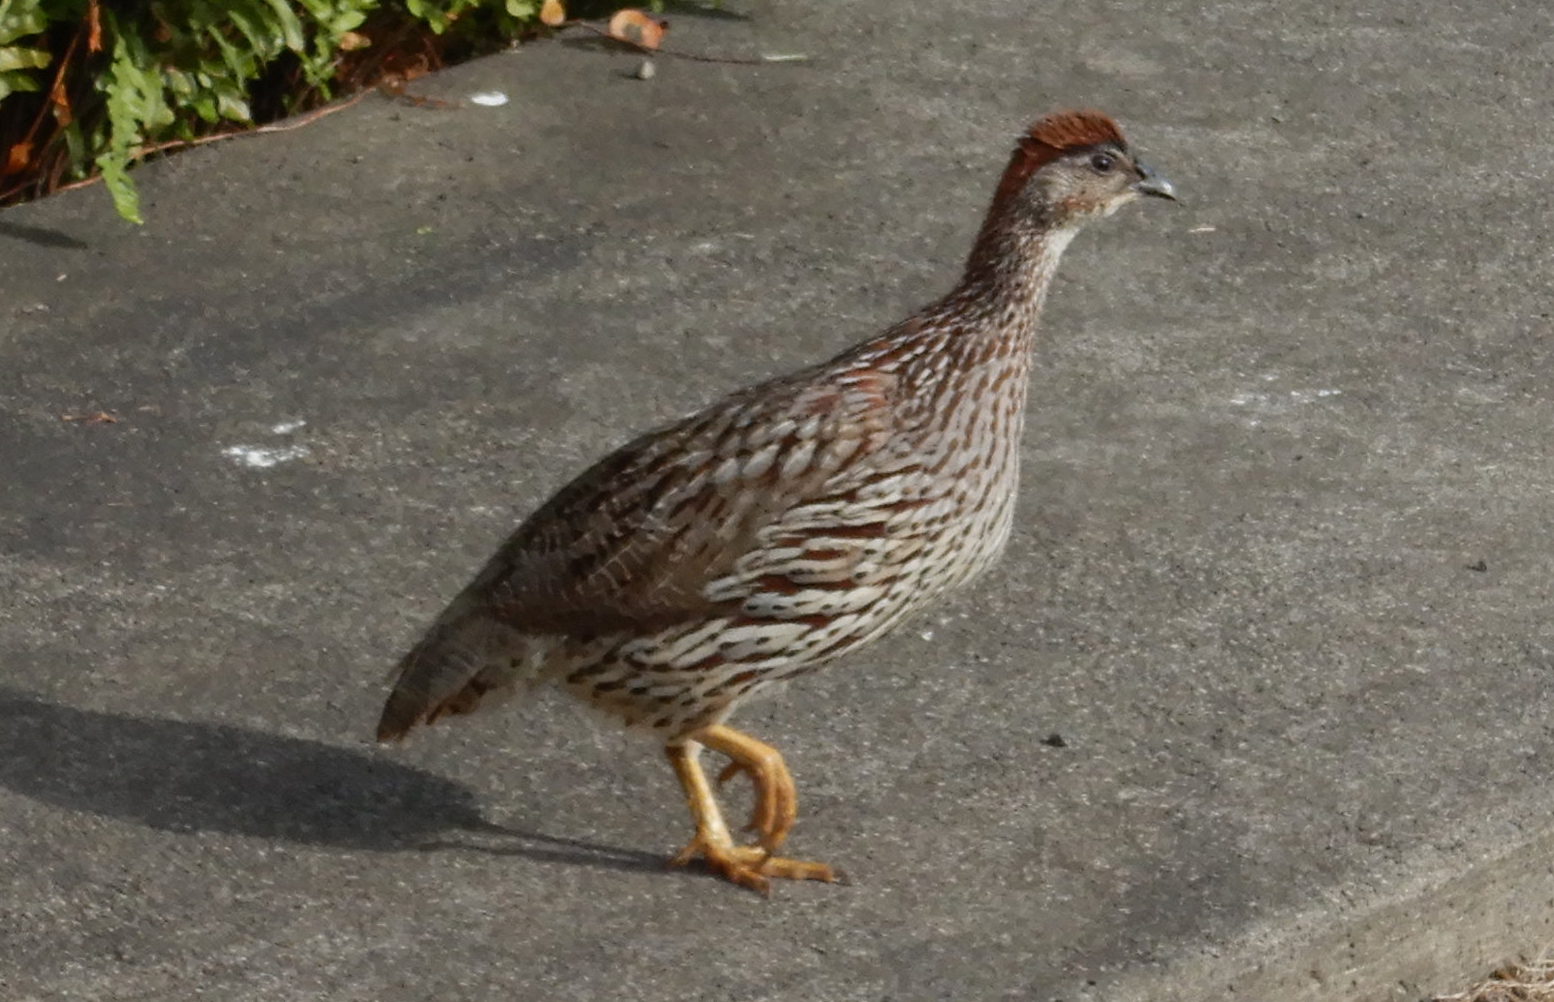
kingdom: Animalia
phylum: Chordata
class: Aves
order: Galliformes
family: Phasianidae
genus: Pternistis
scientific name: Pternistis erckelii
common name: Erckel's francolin
